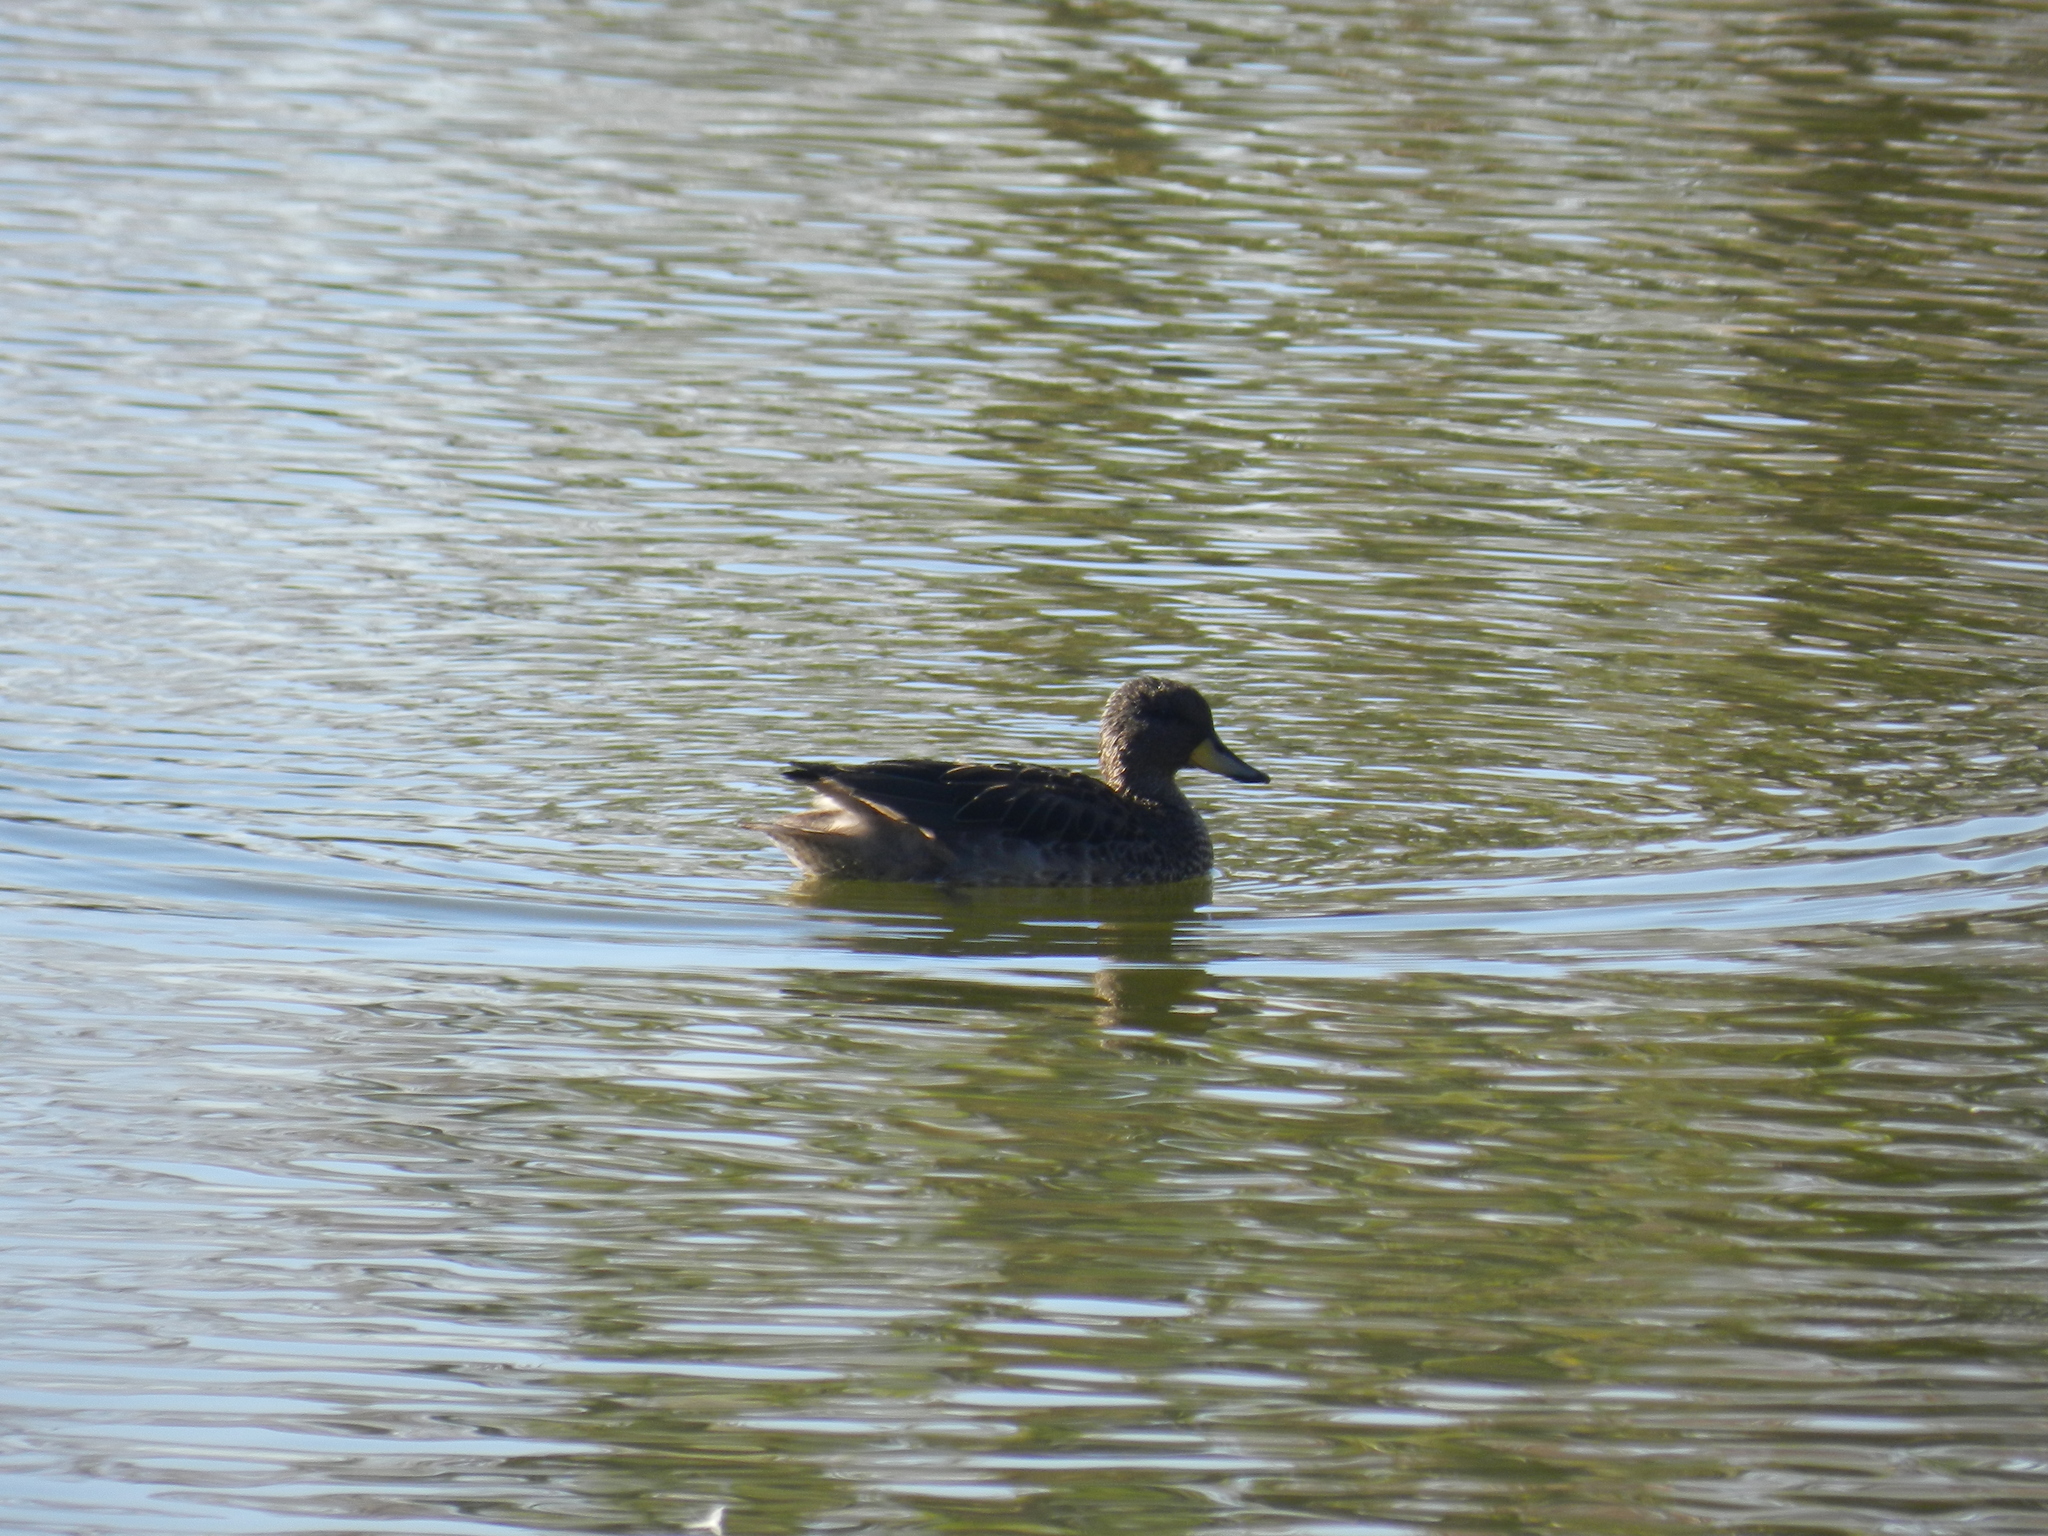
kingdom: Animalia
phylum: Chordata
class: Aves
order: Anseriformes
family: Anatidae
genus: Anas
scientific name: Anas georgica
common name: Yellow-billed pintail
